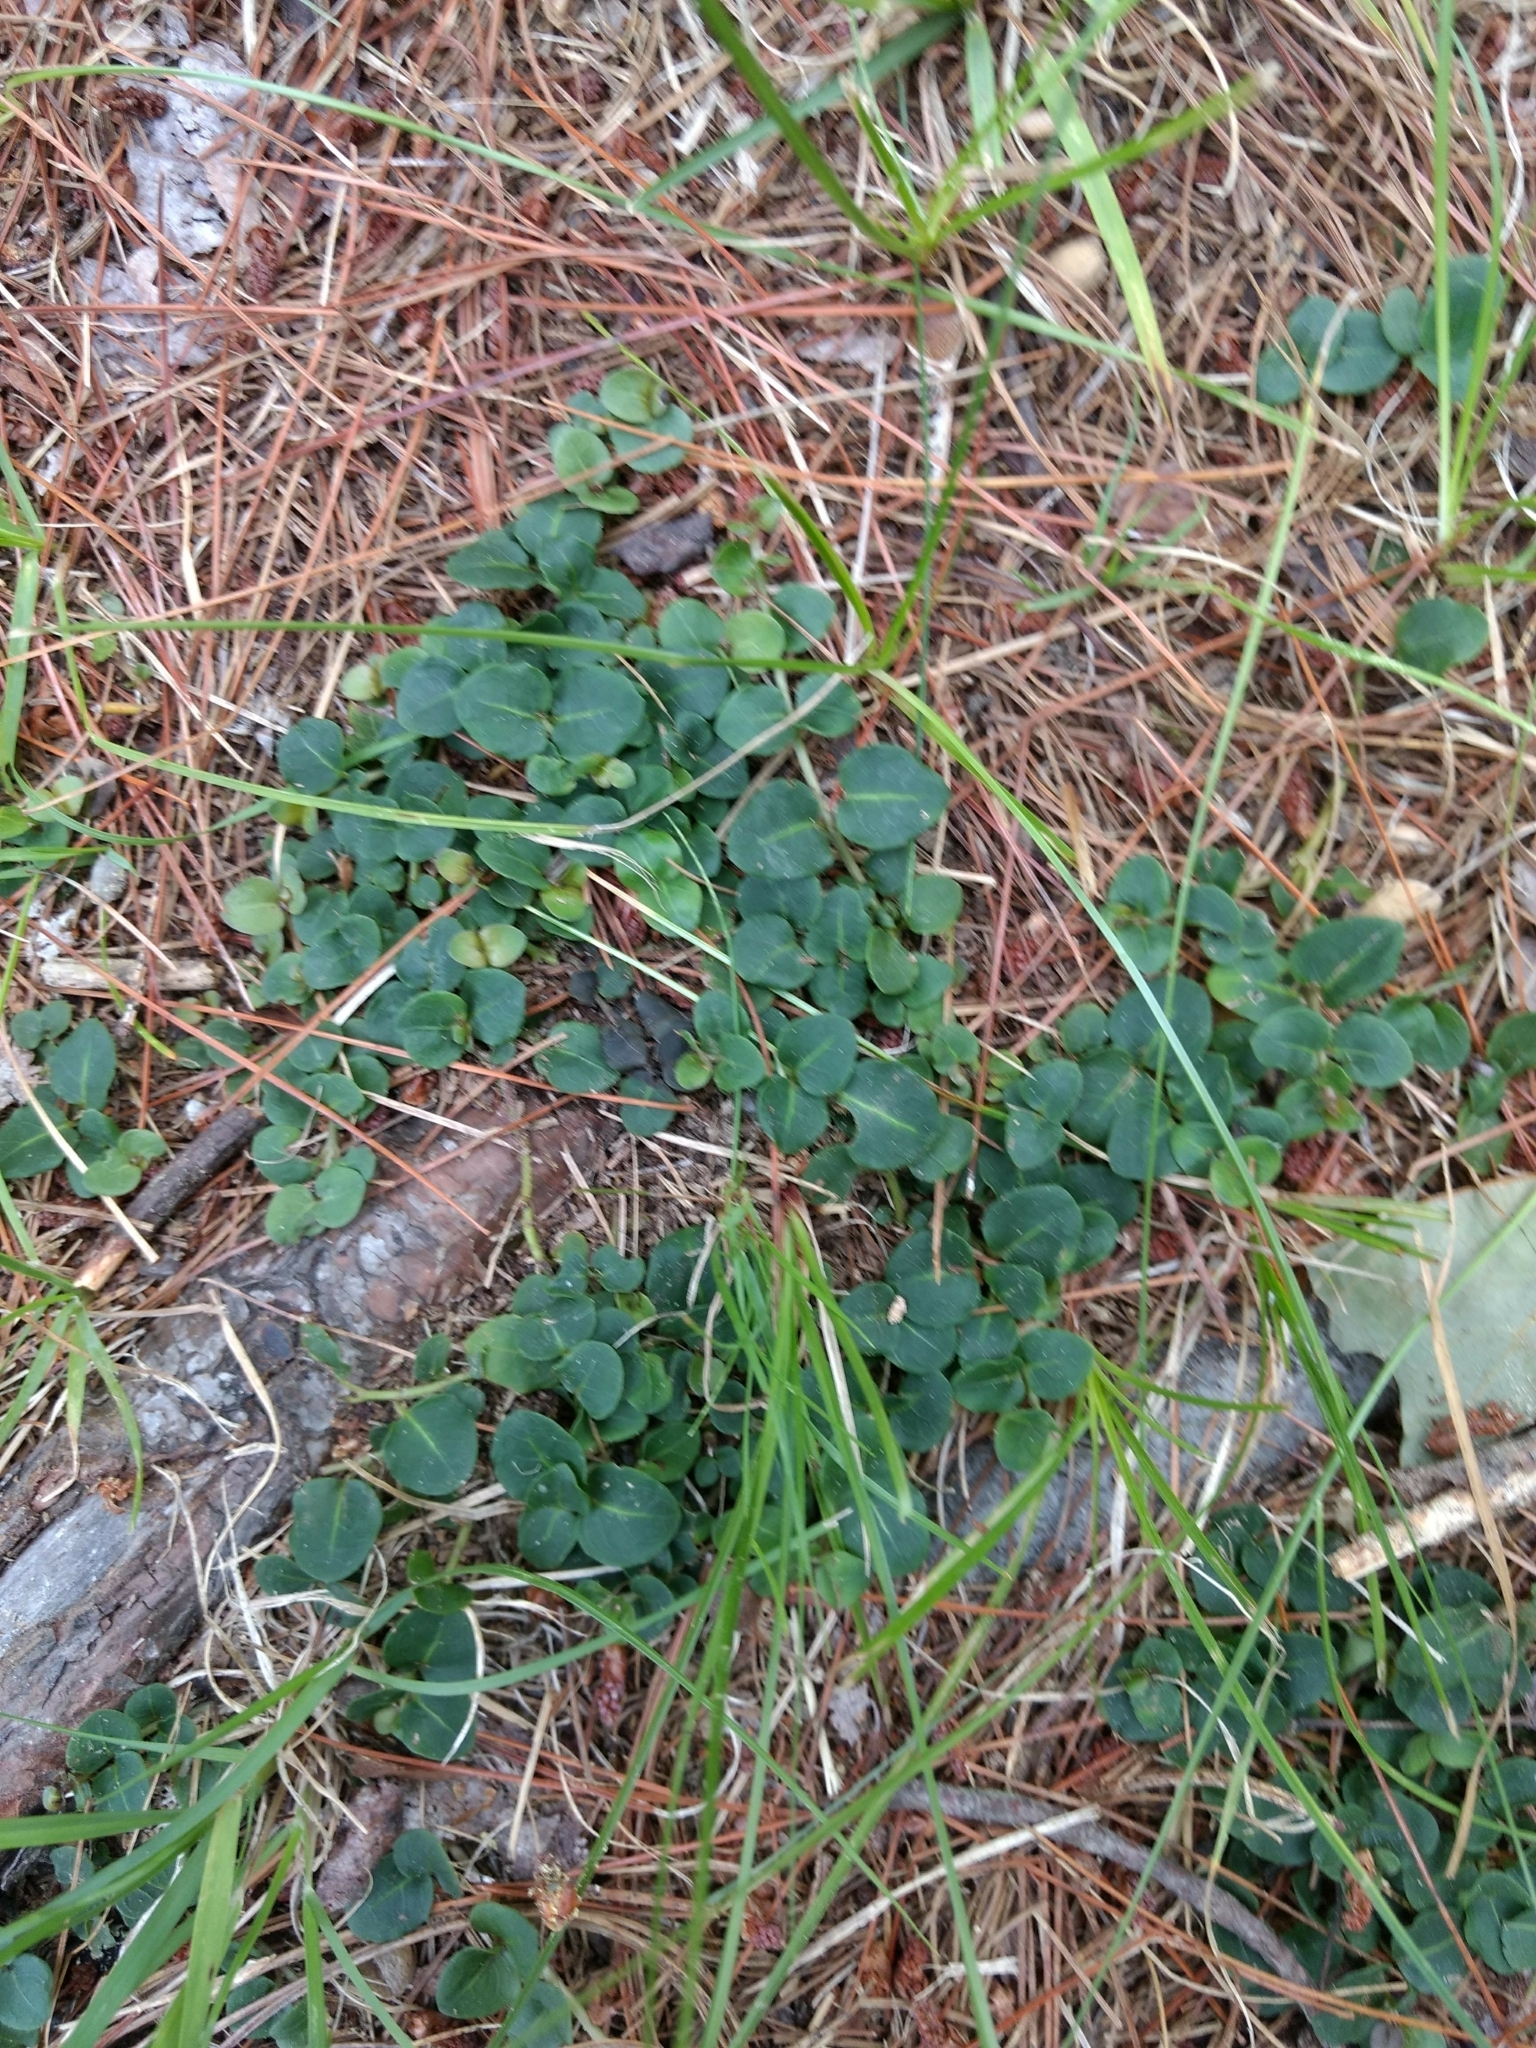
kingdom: Plantae
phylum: Tracheophyta
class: Magnoliopsida
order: Gentianales
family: Rubiaceae
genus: Mitchella
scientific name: Mitchella repens
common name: Partridge-berry
